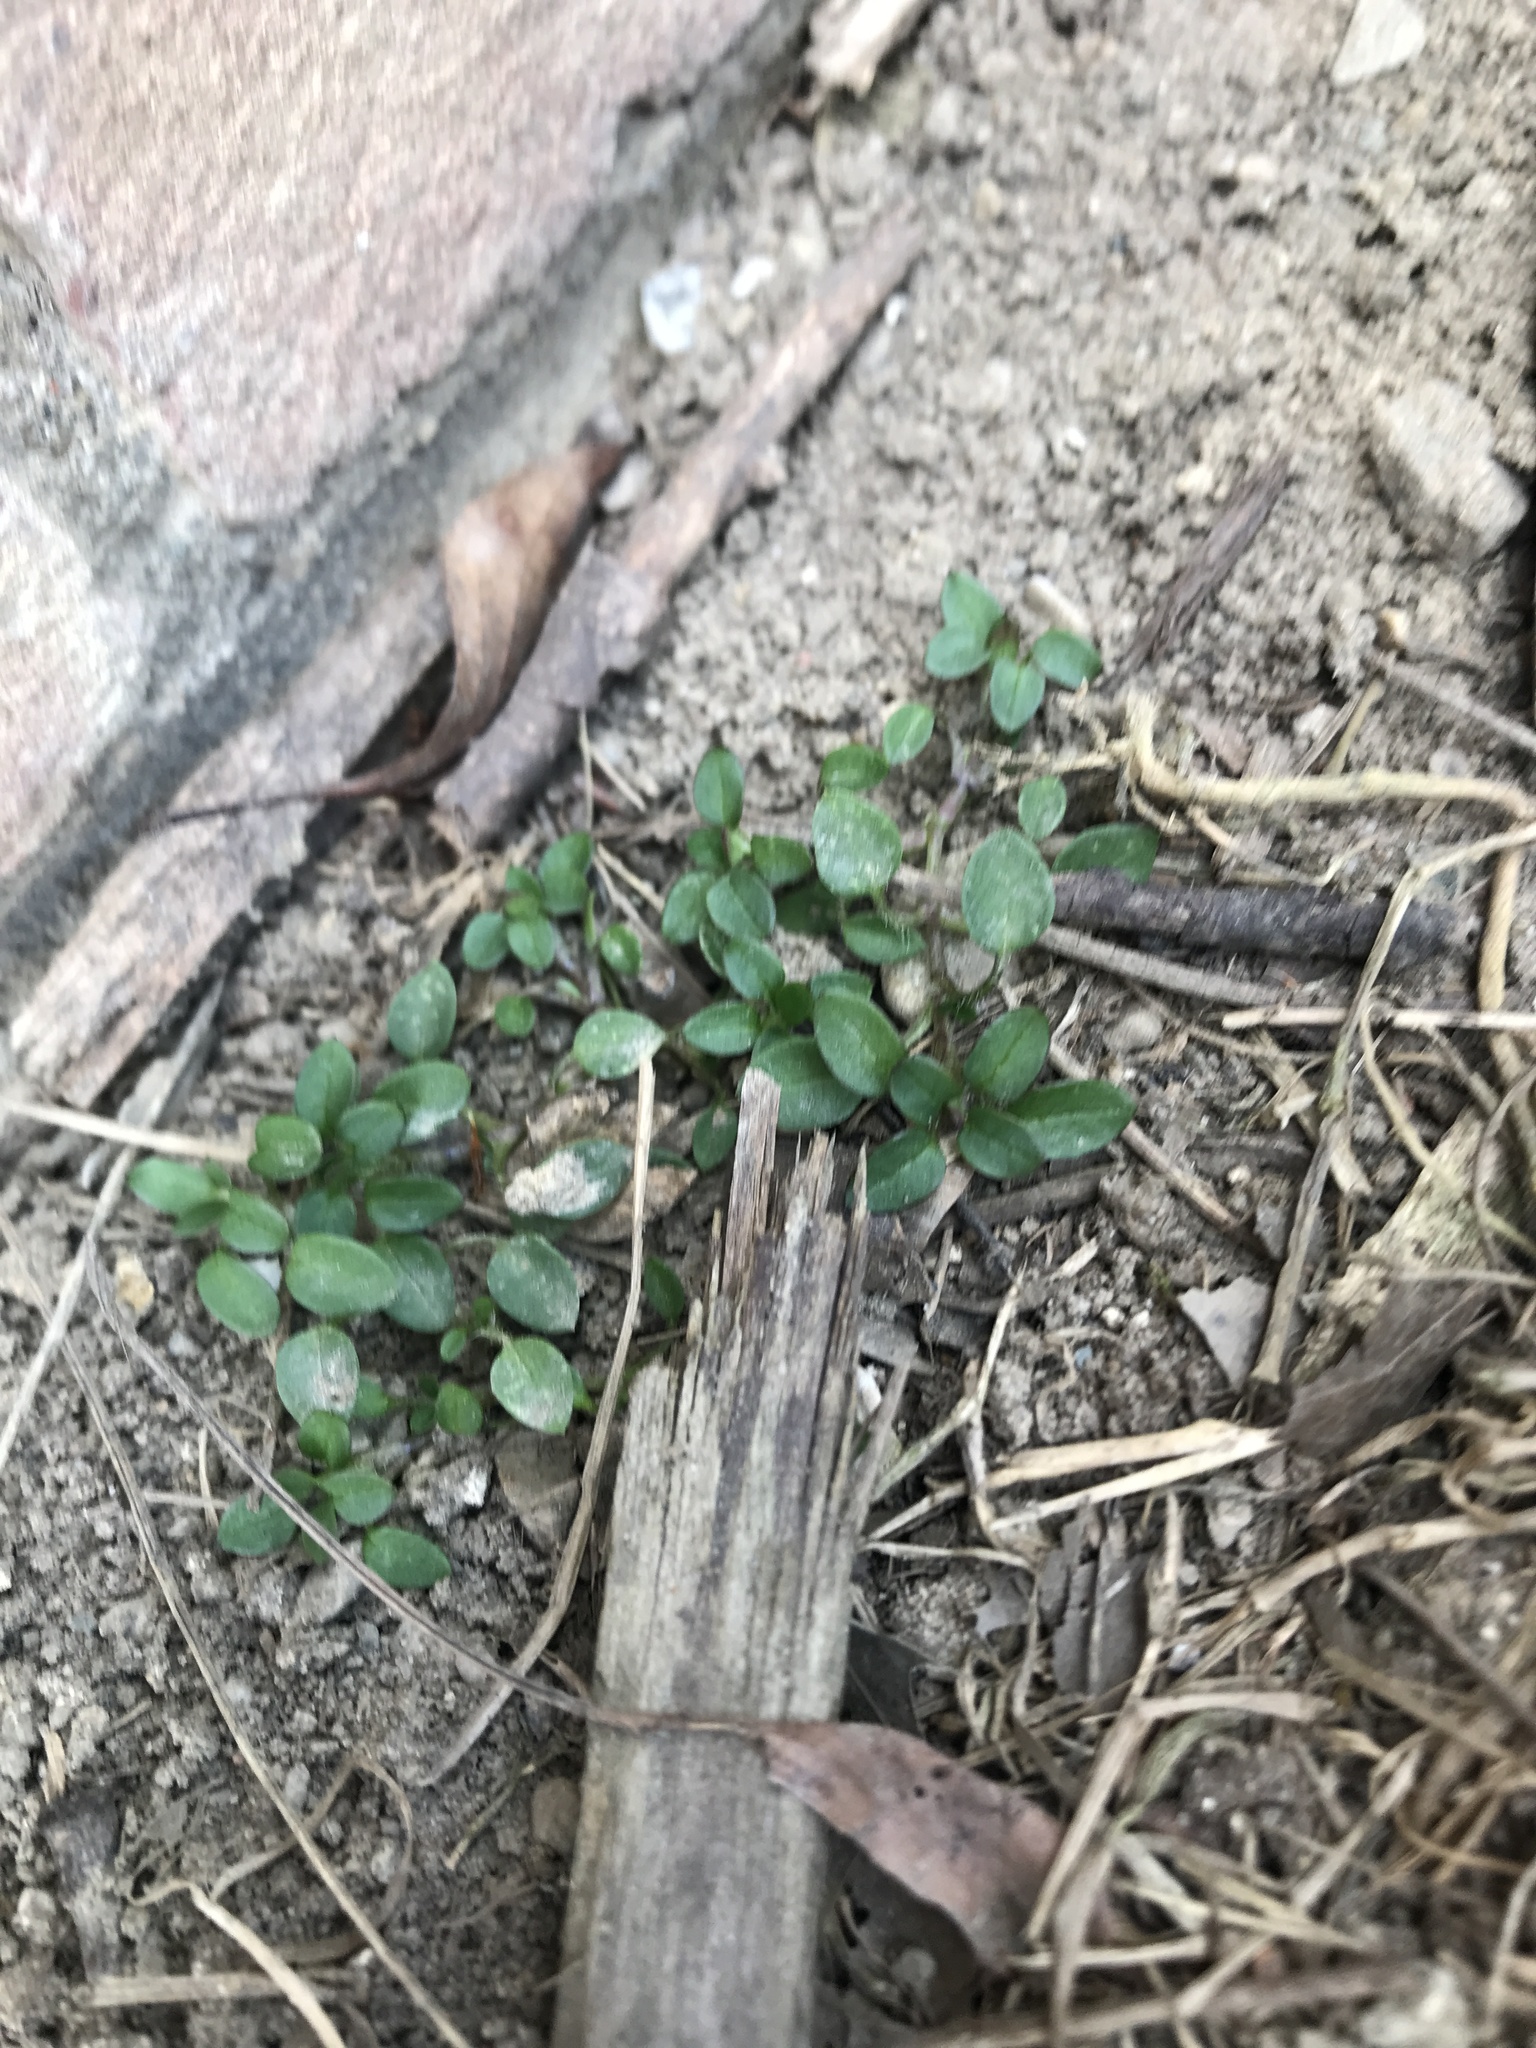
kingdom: Plantae
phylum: Tracheophyta
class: Magnoliopsida
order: Caryophyllales
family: Caryophyllaceae
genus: Stellaria
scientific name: Stellaria media
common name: Common chickweed
